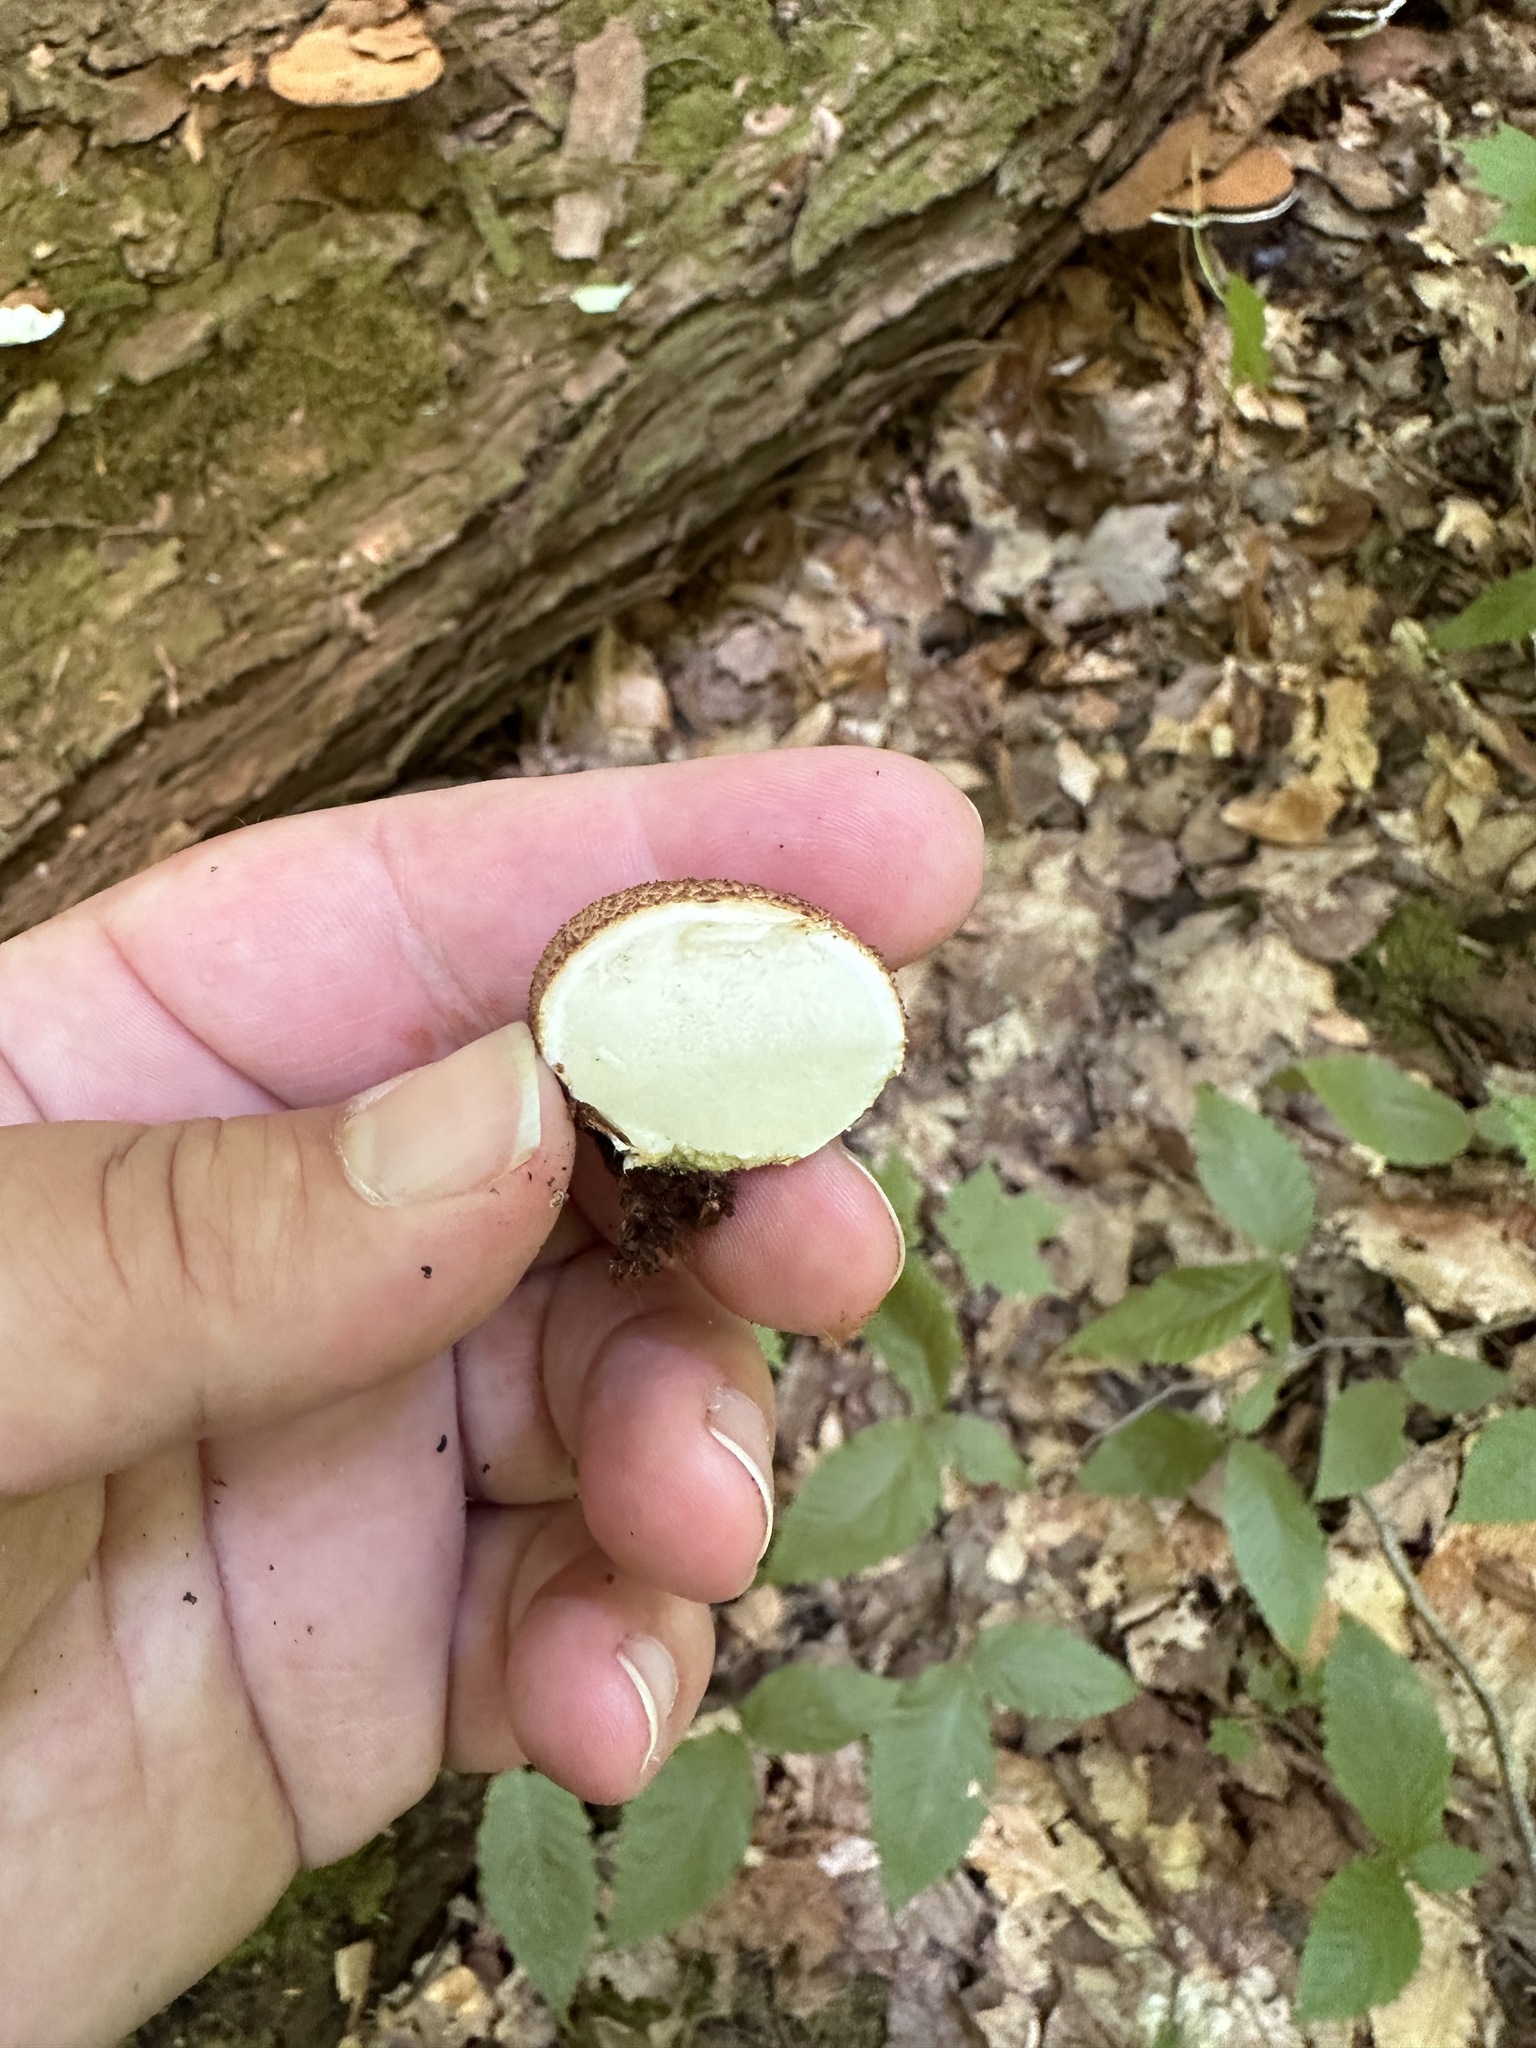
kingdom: Fungi
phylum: Basidiomycota
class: Agaricomycetes
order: Boletales
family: Sclerodermataceae
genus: Scleroderma
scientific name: Scleroderma citrinum
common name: Common earthball
